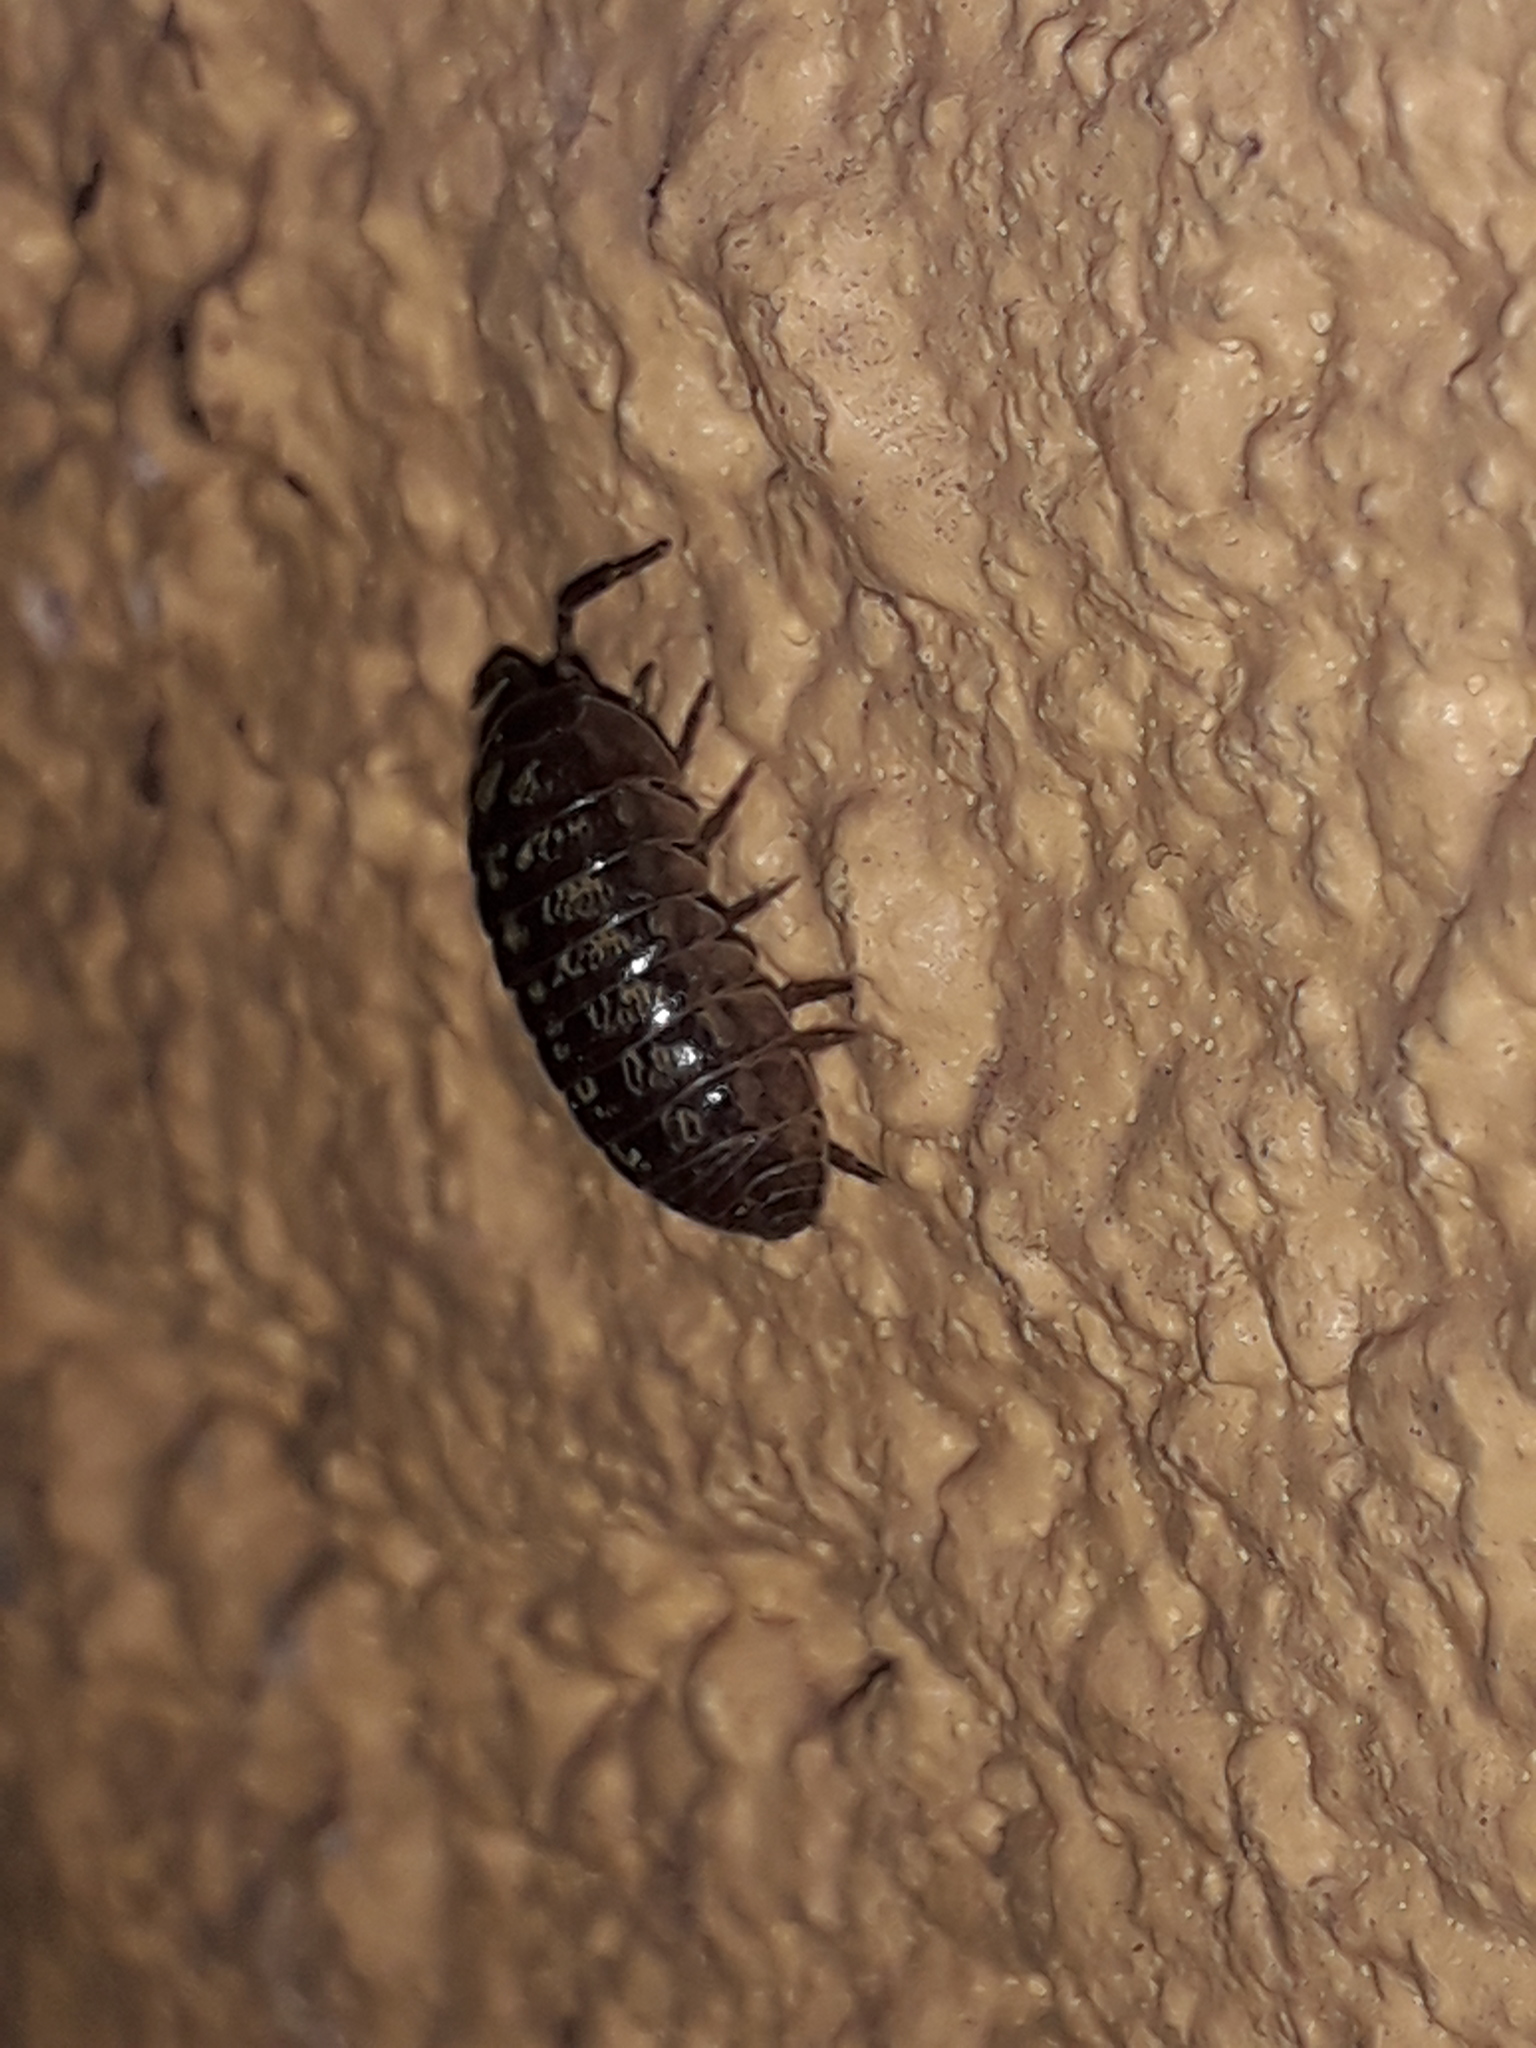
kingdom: Animalia
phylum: Arthropoda
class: Malacostraca
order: Isopoda
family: Armadillidiidae
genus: Armadillidium
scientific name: Armadillidium vulgare
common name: Common pill woodlouse
